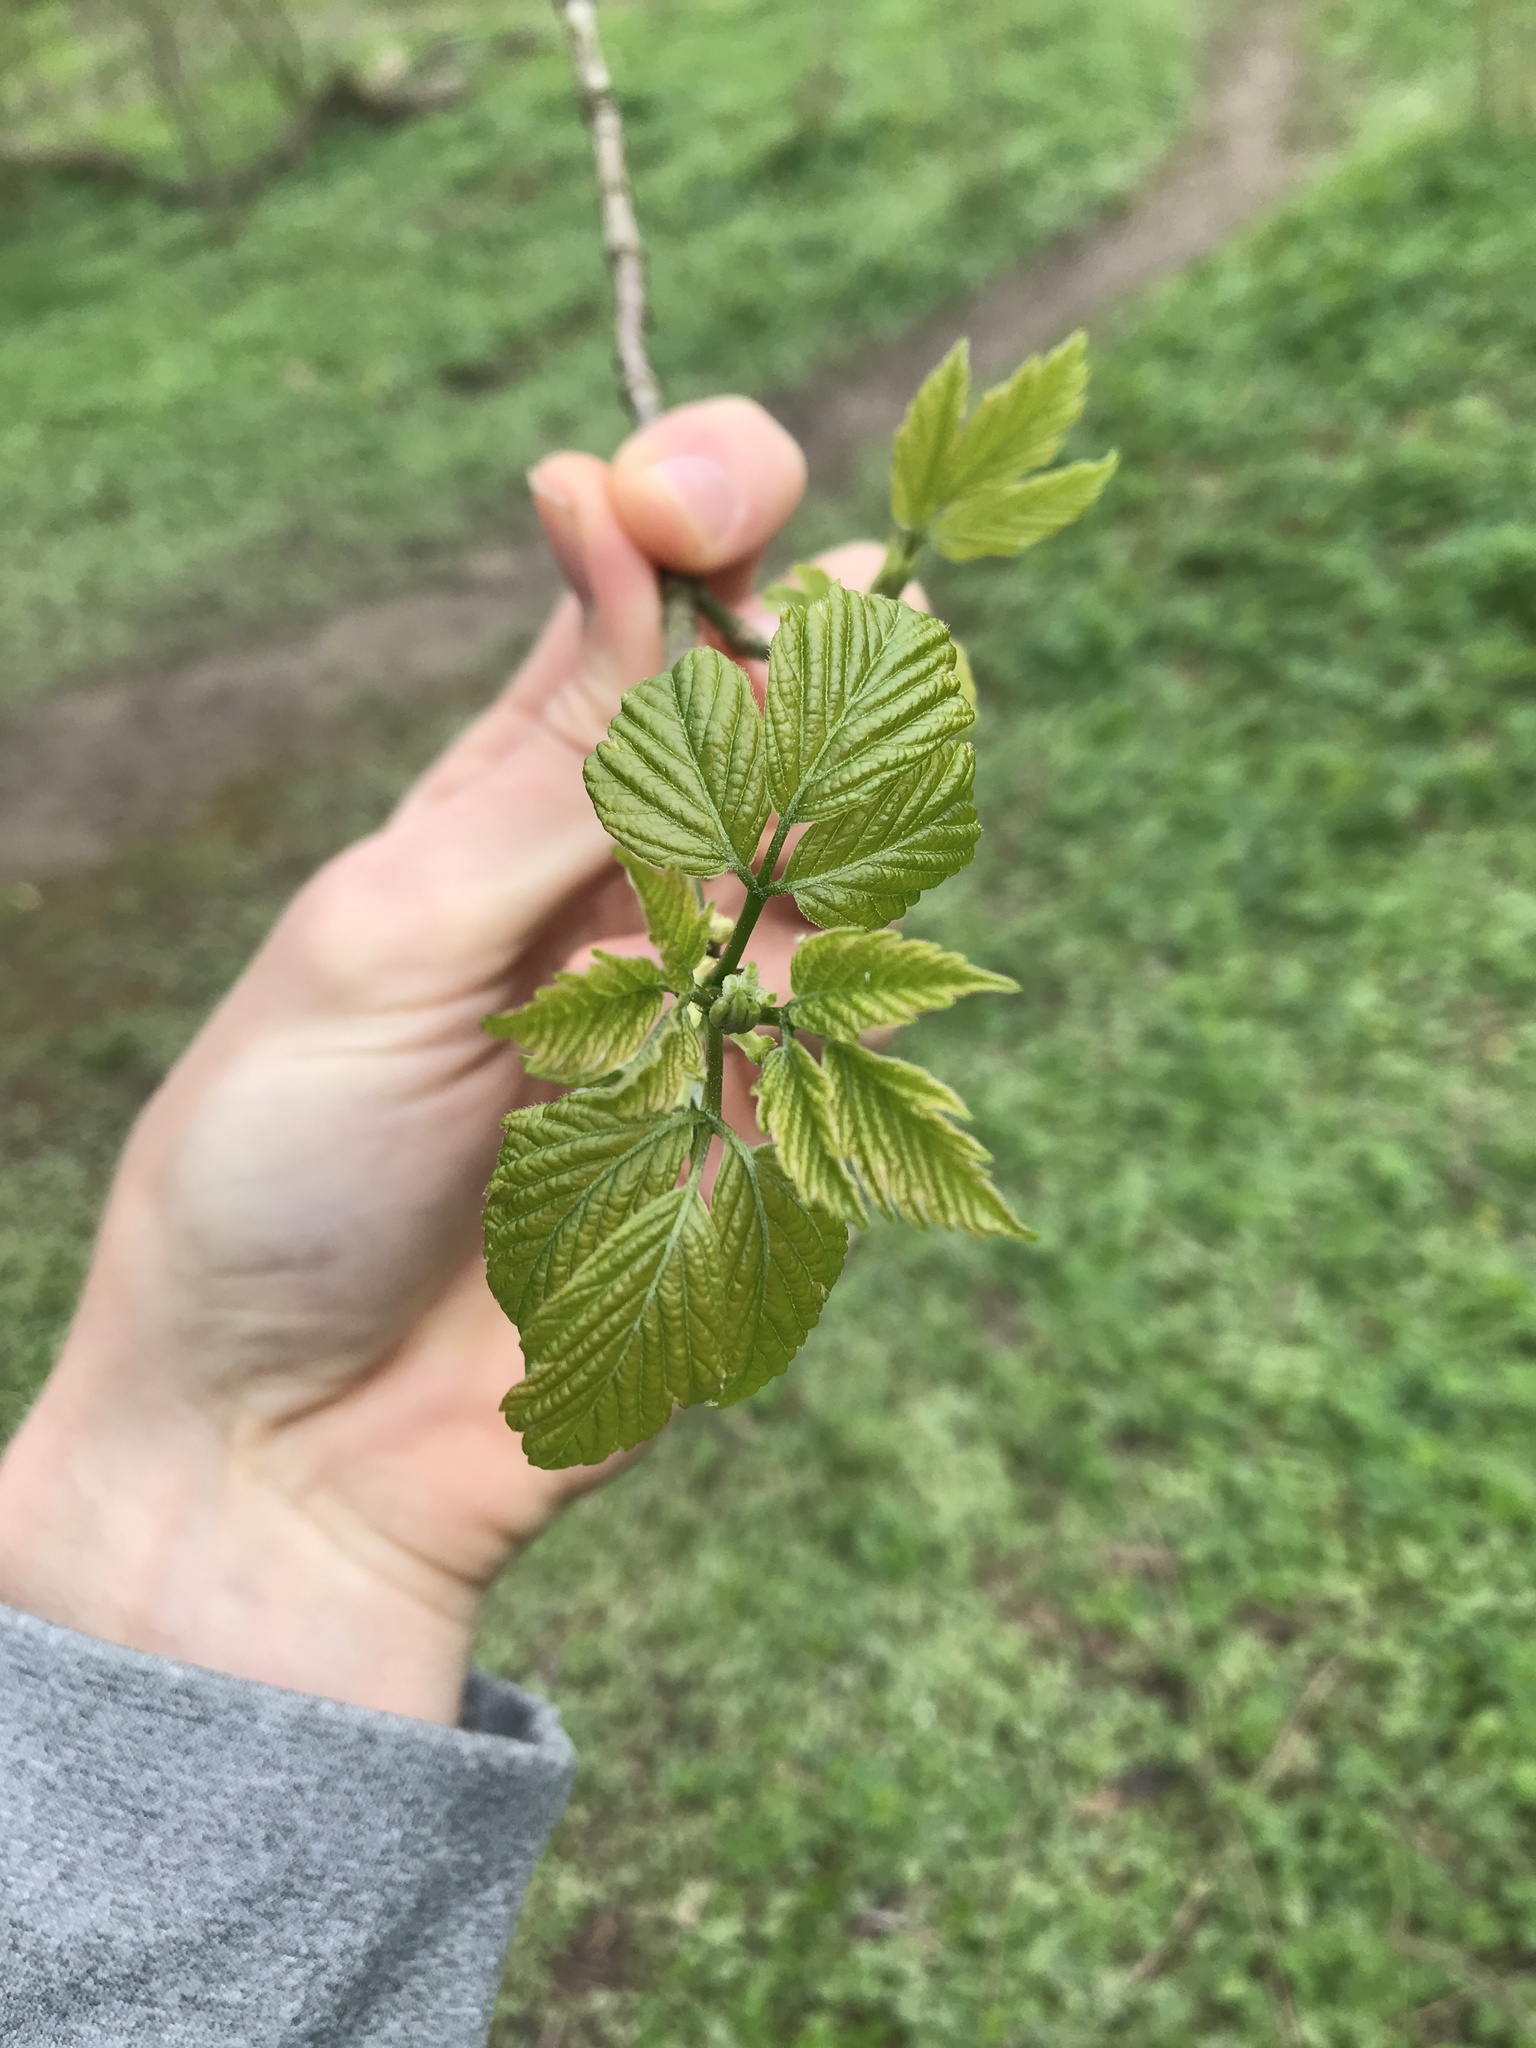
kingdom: Plantae
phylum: Tracheophyta
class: Magnoliopsida
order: Sapindales
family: Sapindaceae
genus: Acer
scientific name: Acer negundo
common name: Ashleaf maple
